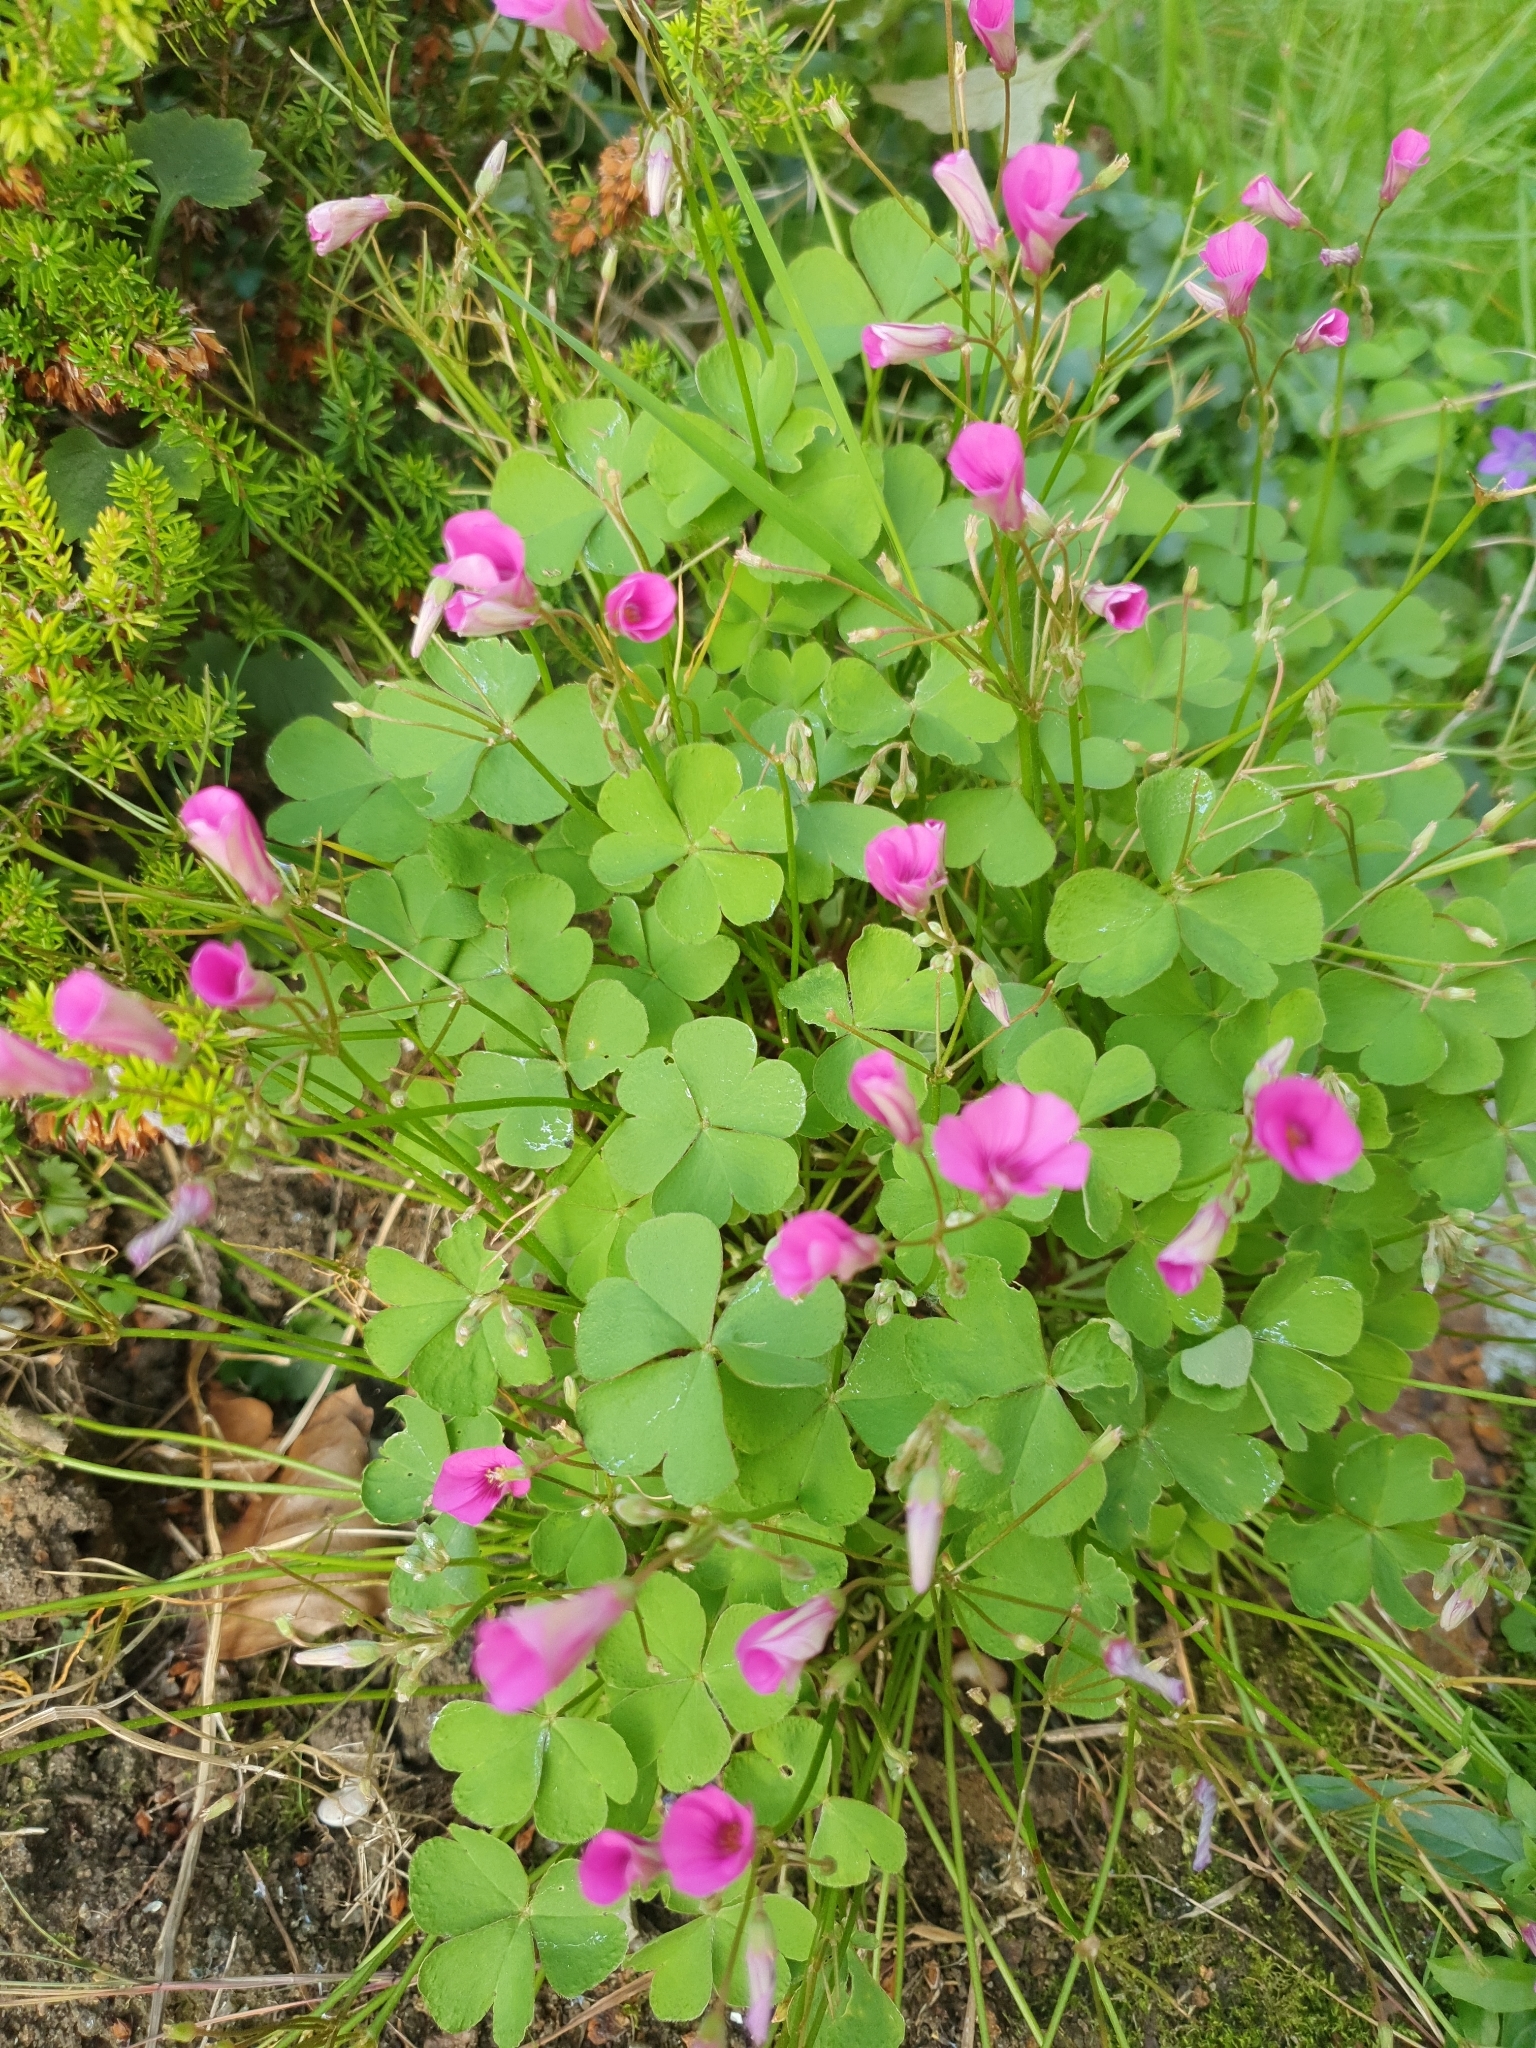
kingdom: Plantae
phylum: Tracheophyta
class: Magnoliopsida
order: Oxalidales
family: Oxalidaceae
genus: Oxalis
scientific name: Oxalis articulata
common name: Pink-sorrel
